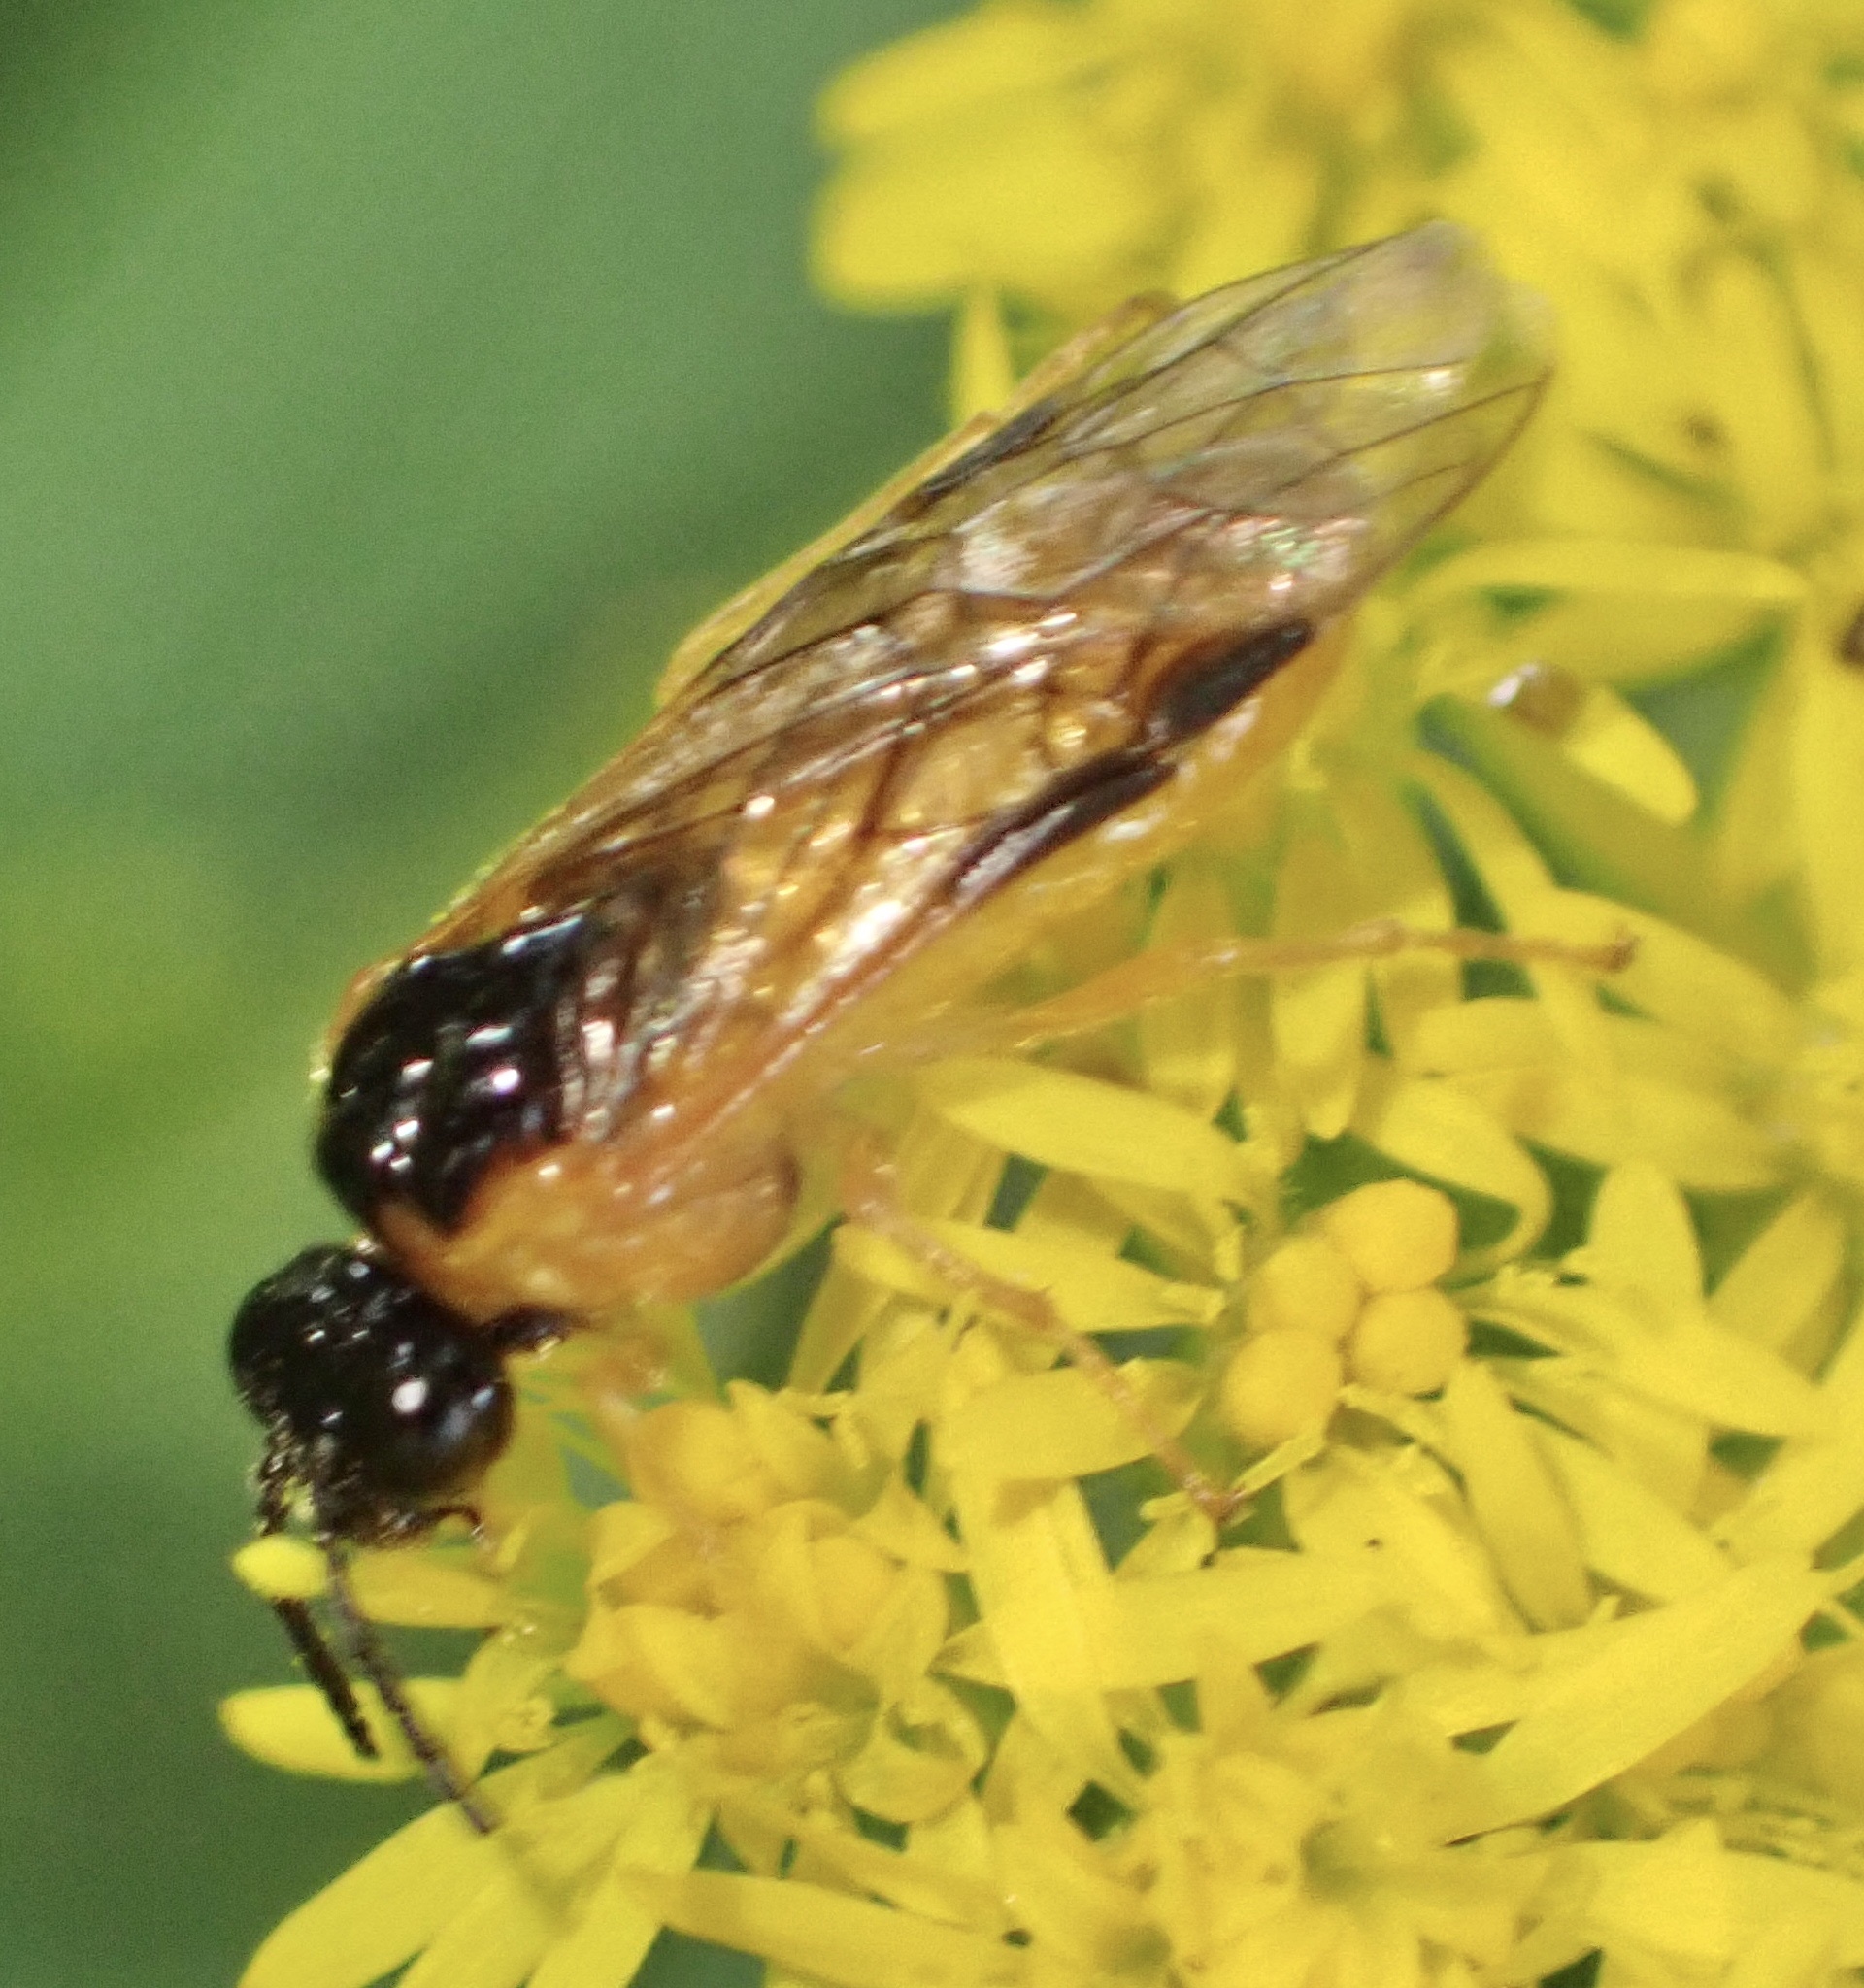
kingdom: Animalia
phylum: Arthropoda
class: Insecta
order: Hymenoptera
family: Tenthredinidae
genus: Selandria
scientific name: Selandria serva
